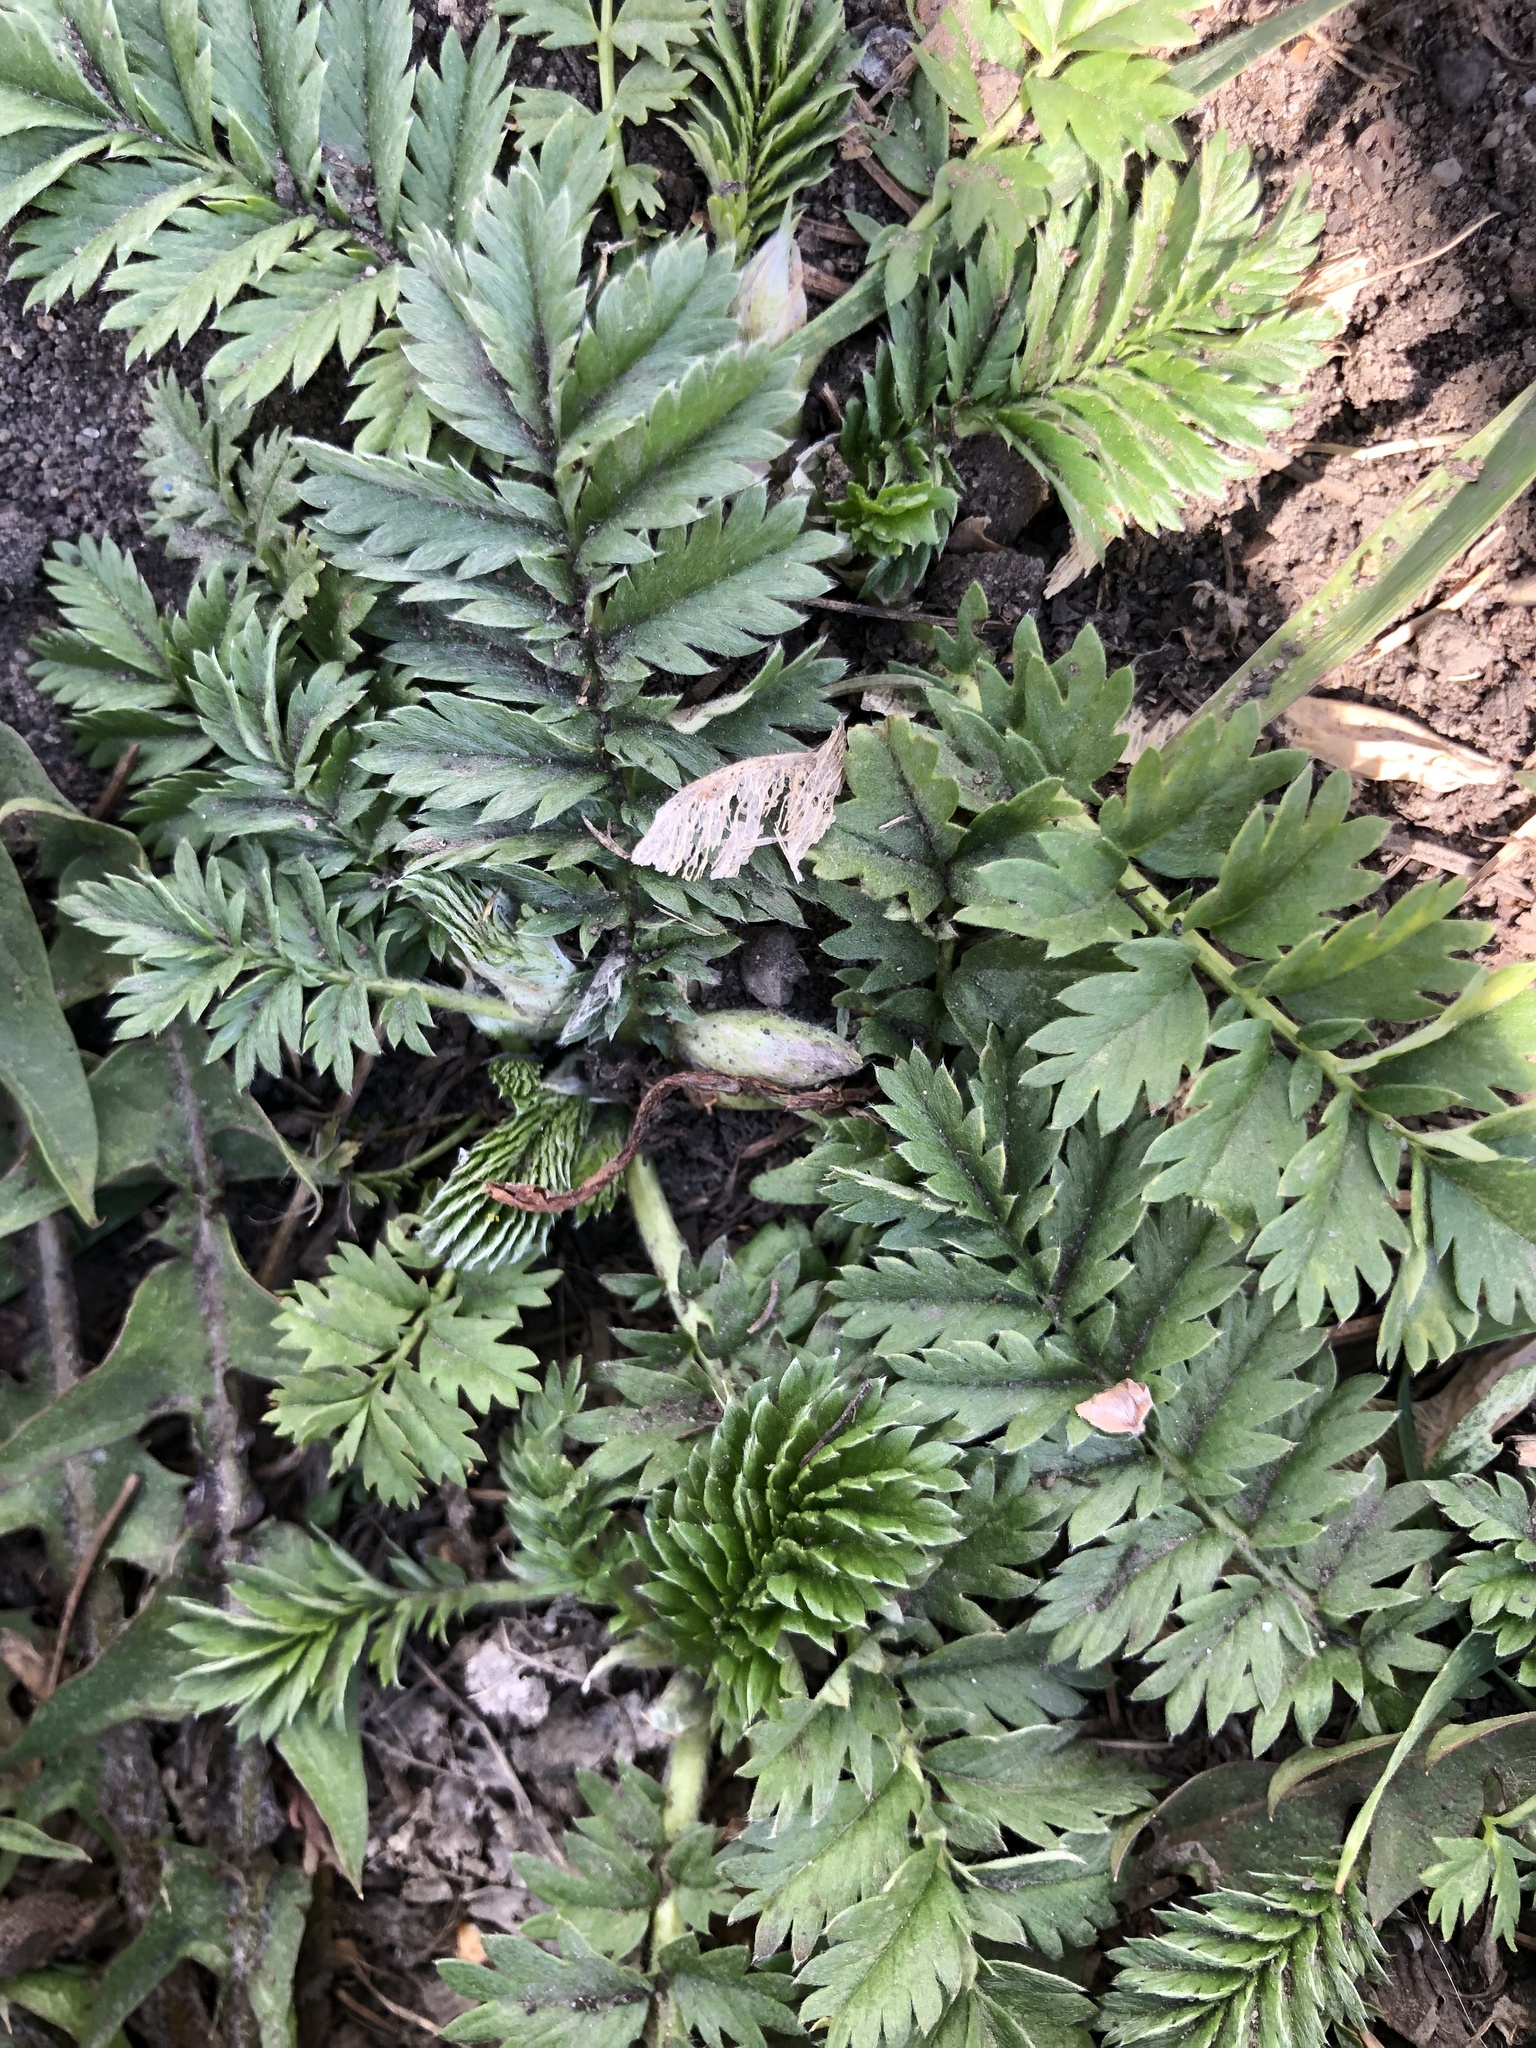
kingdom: Plantae
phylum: Tracheophyta
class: Magnoliopsida
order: Rosales
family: Rosaceae
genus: Argentina
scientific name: Argentina anserina
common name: Common silverweed
